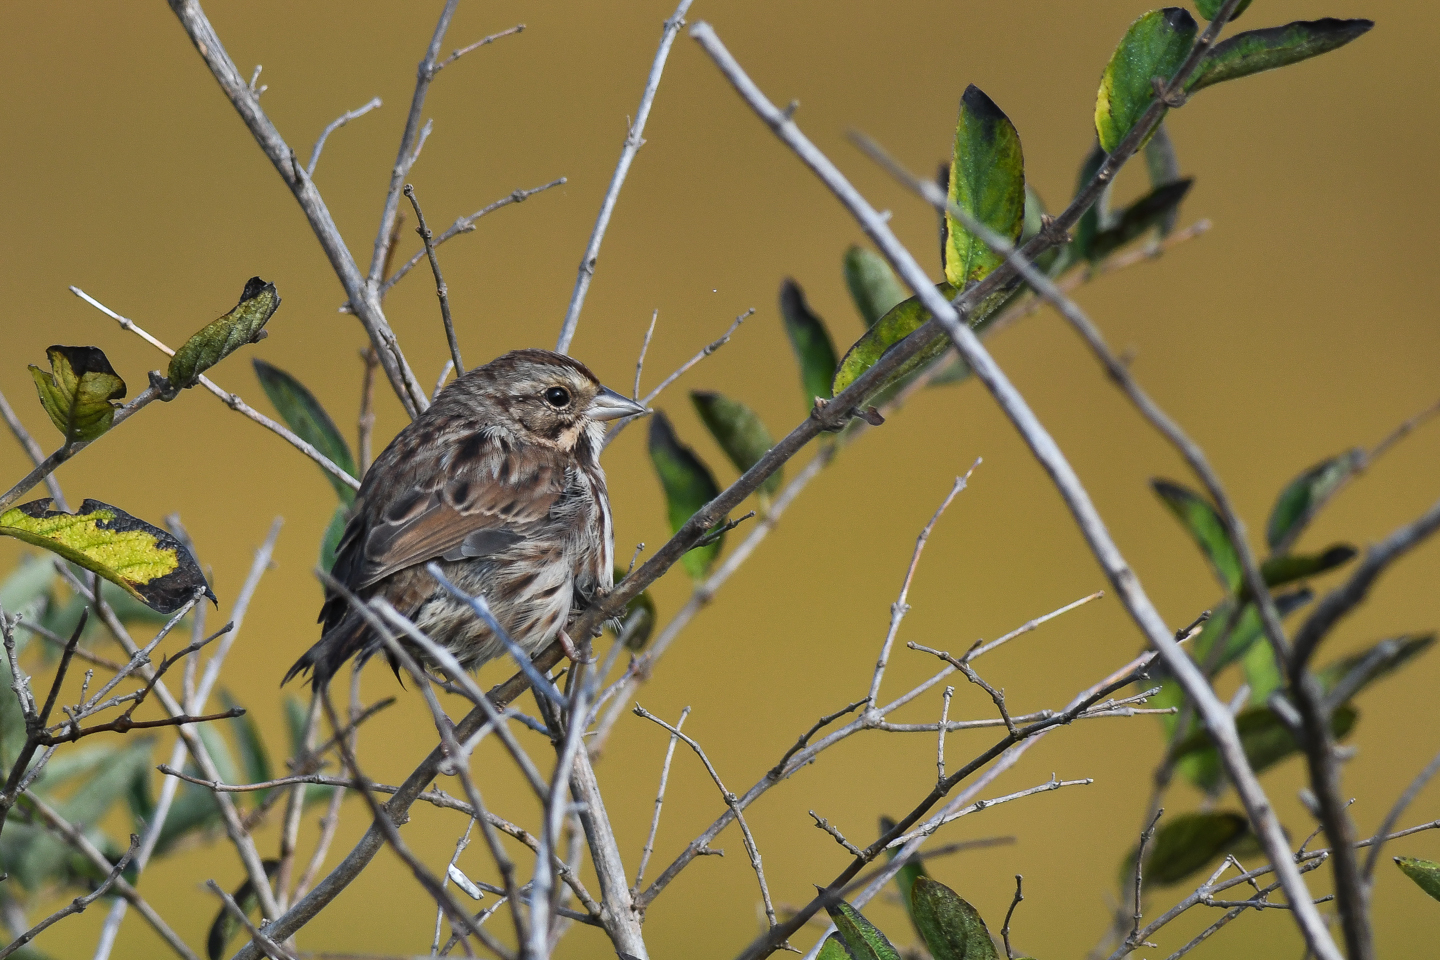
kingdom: Animalia
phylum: Chordata
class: Aves
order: Passeriformes
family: Passerellidae
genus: Melospiza
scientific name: Melospiza melodia
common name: Song sparrow
